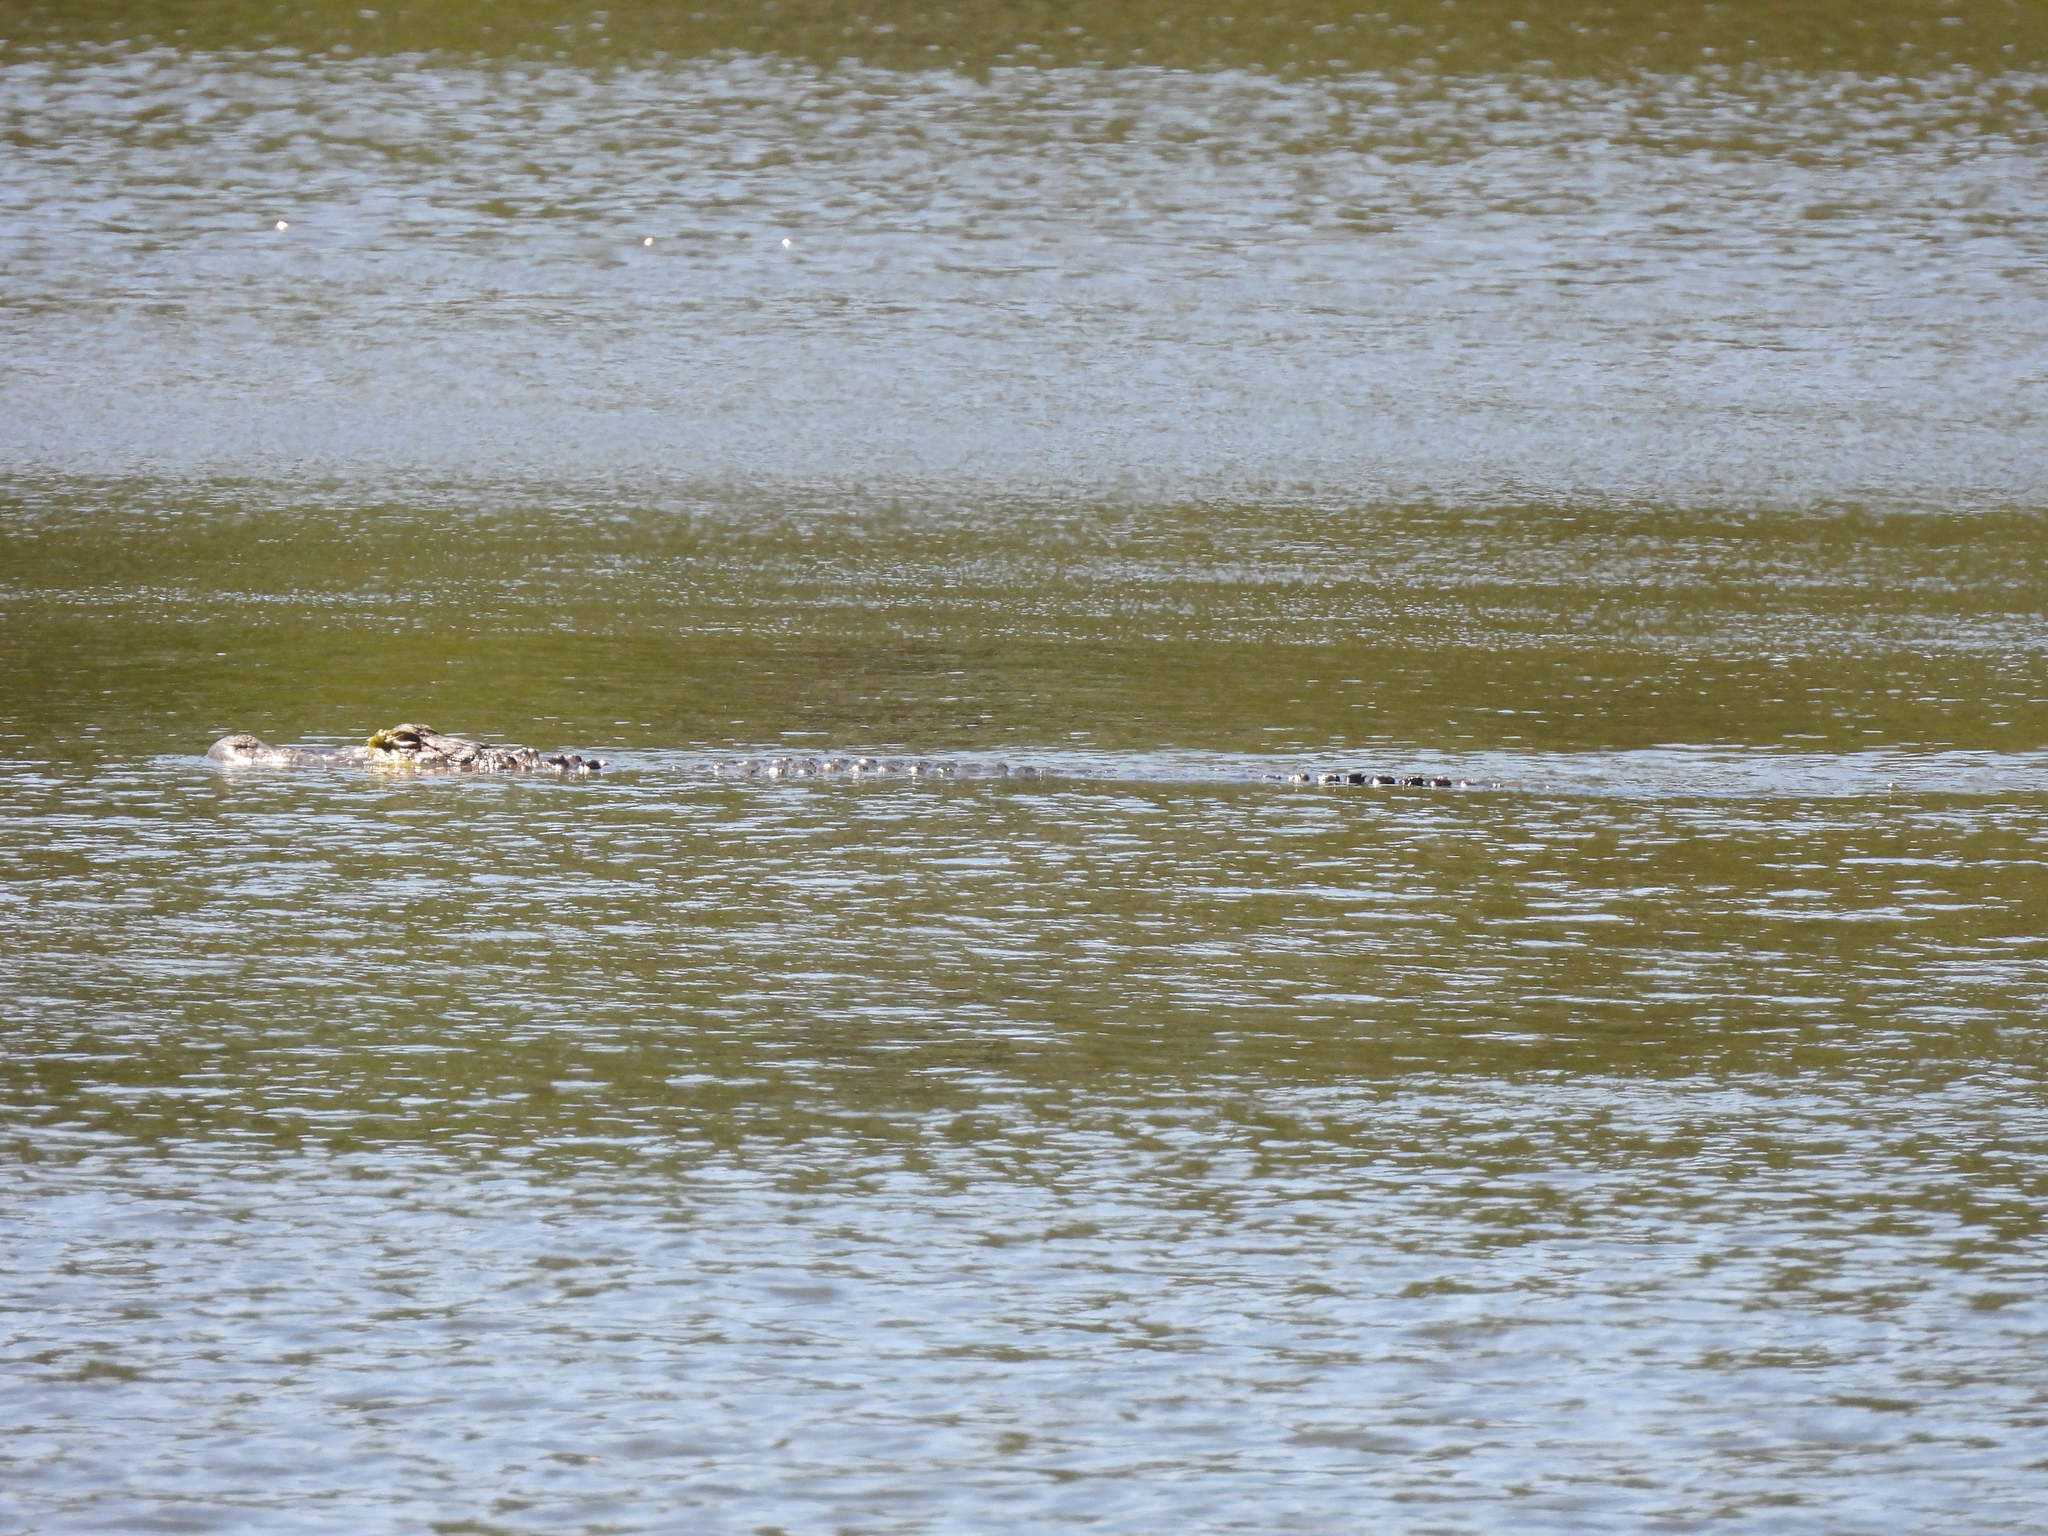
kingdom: Animalia
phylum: Chordata
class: Crocodylia
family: Alligatoridae
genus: Alligator
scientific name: Alligator mississippiensis
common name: American alligator
